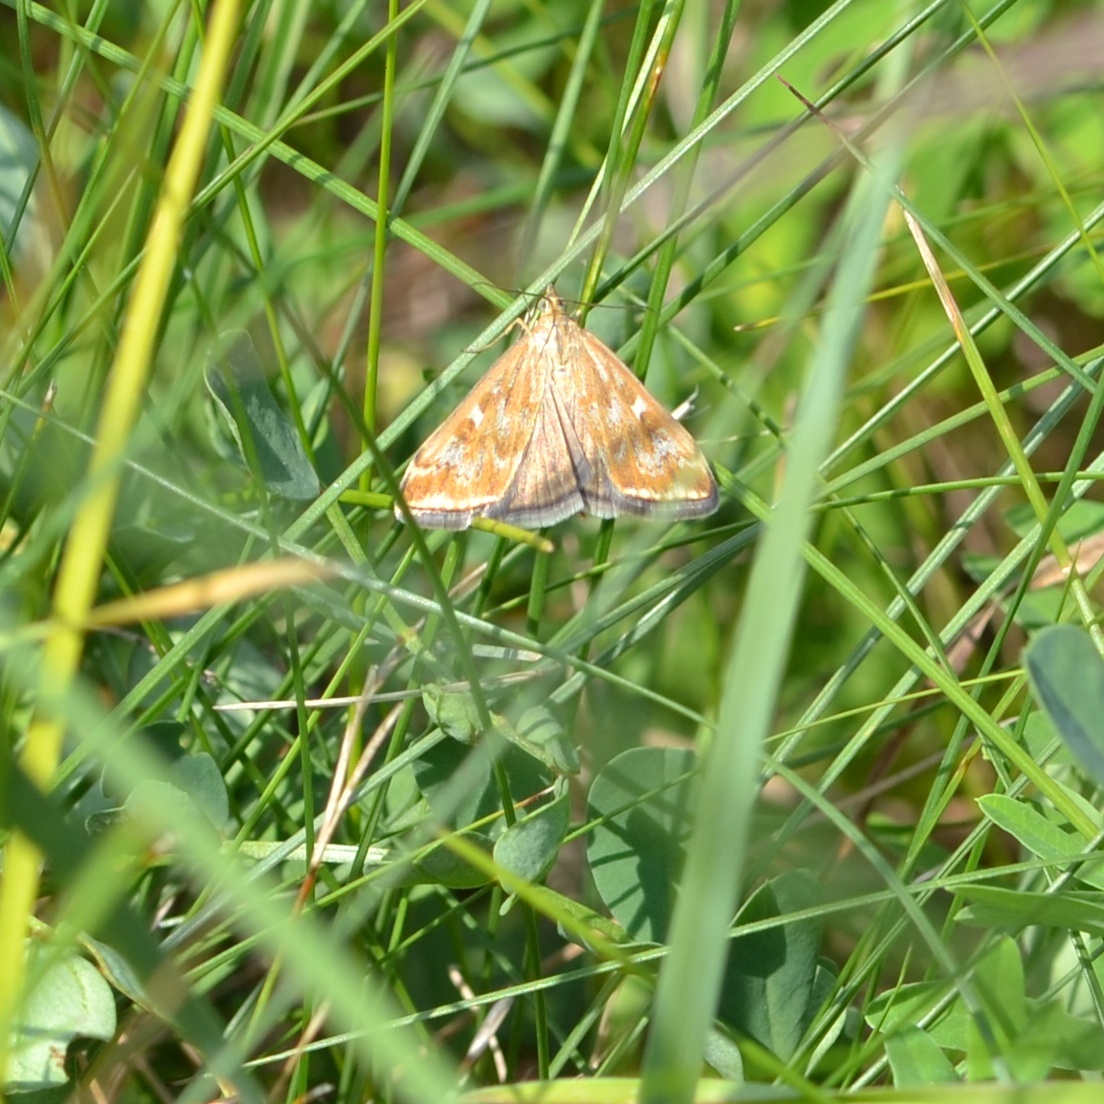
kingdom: Animalia
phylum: Arthropoda
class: Insecta
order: Lepidoptera
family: Crambidae
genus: Loxostege
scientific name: Loxostege sticticalis
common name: Crambid moth
